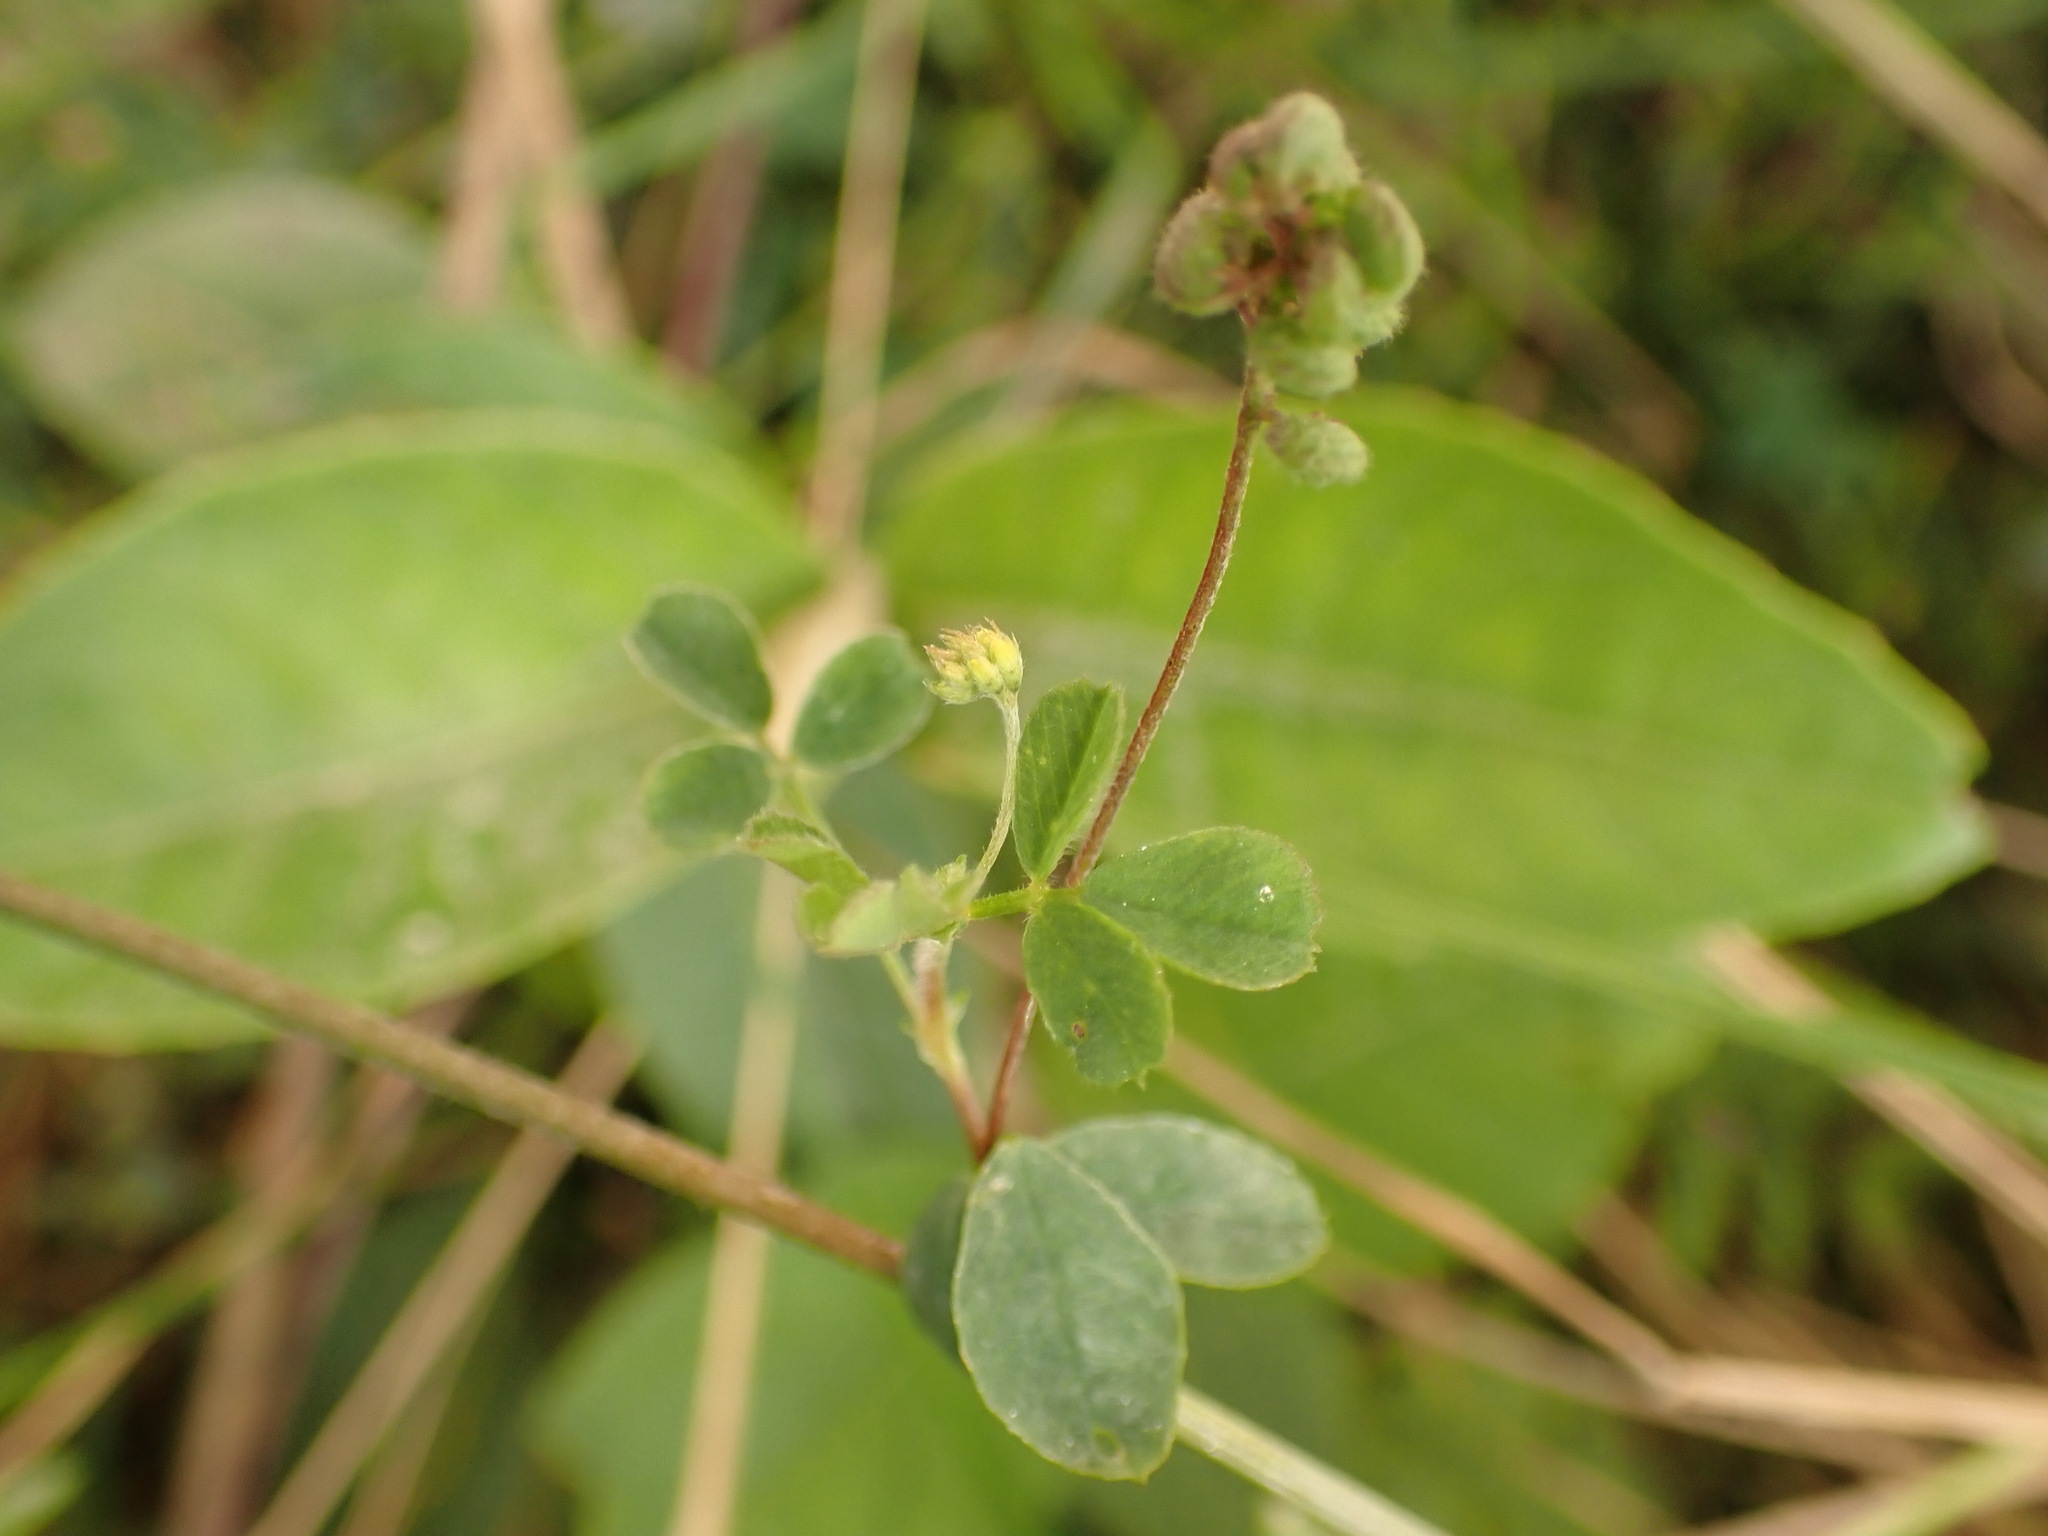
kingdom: Plantae
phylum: Tracheophyta
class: Magnoliopsida
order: Fabales
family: Fabaceae
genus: Medicago
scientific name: Medicago lupulina
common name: Black medick
